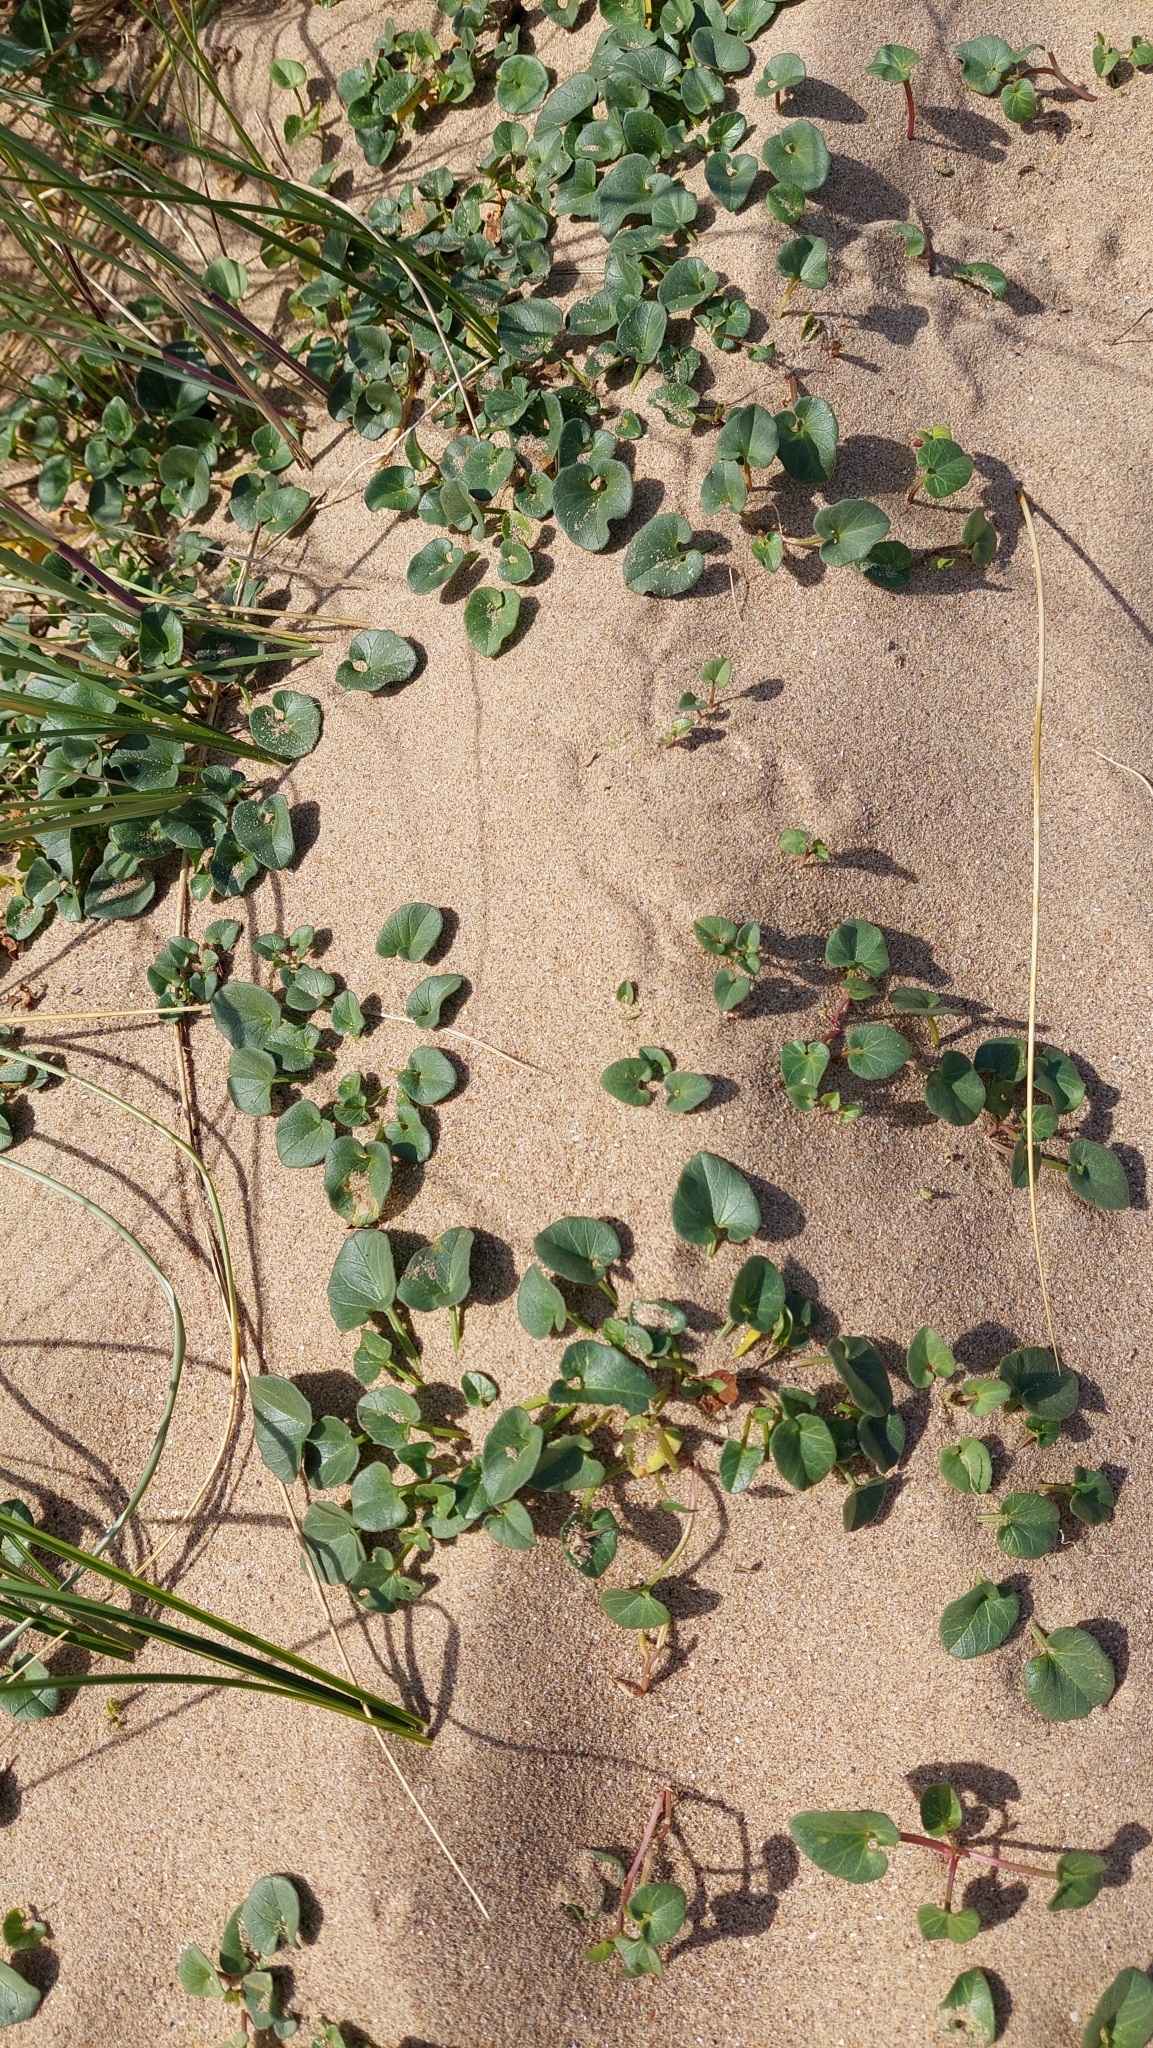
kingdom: Plantae
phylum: Tracheophyta
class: Magnoliopsida
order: Solanales
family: Convolvulaceae
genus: Calystegia
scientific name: Calystegia soldanella
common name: Sea bindweed
